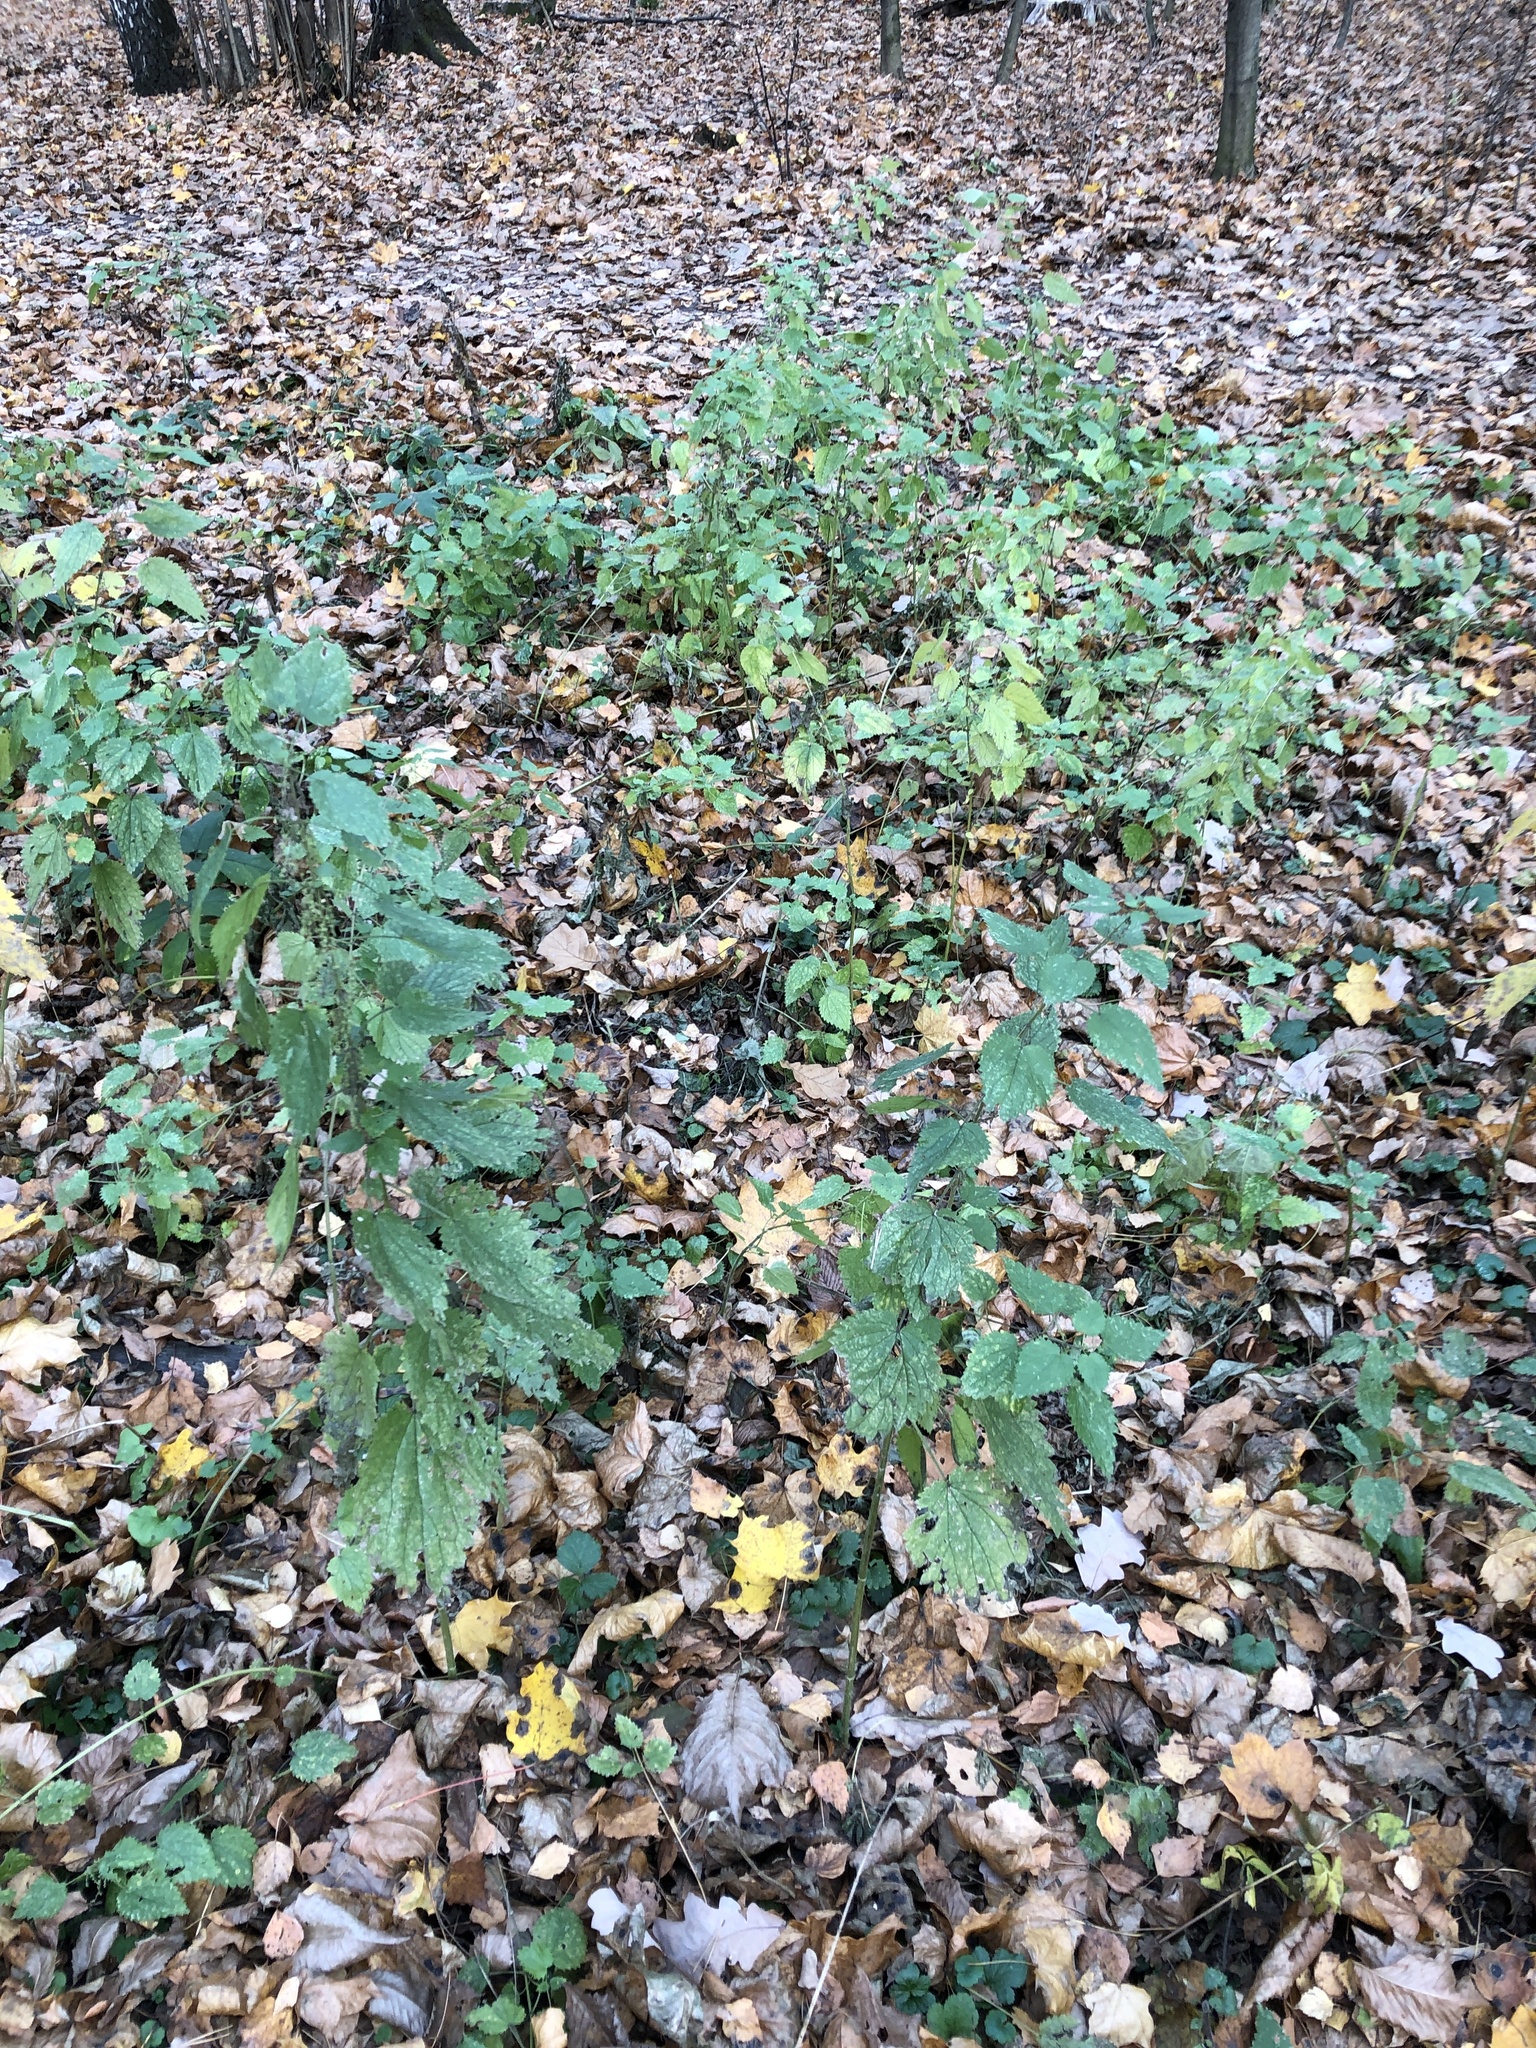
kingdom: Plantae
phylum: Tracheophyta
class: Magnoliopsida
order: Rosales
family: Urticaceae
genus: Urtica
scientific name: Urtica dioica
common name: Common nettle
